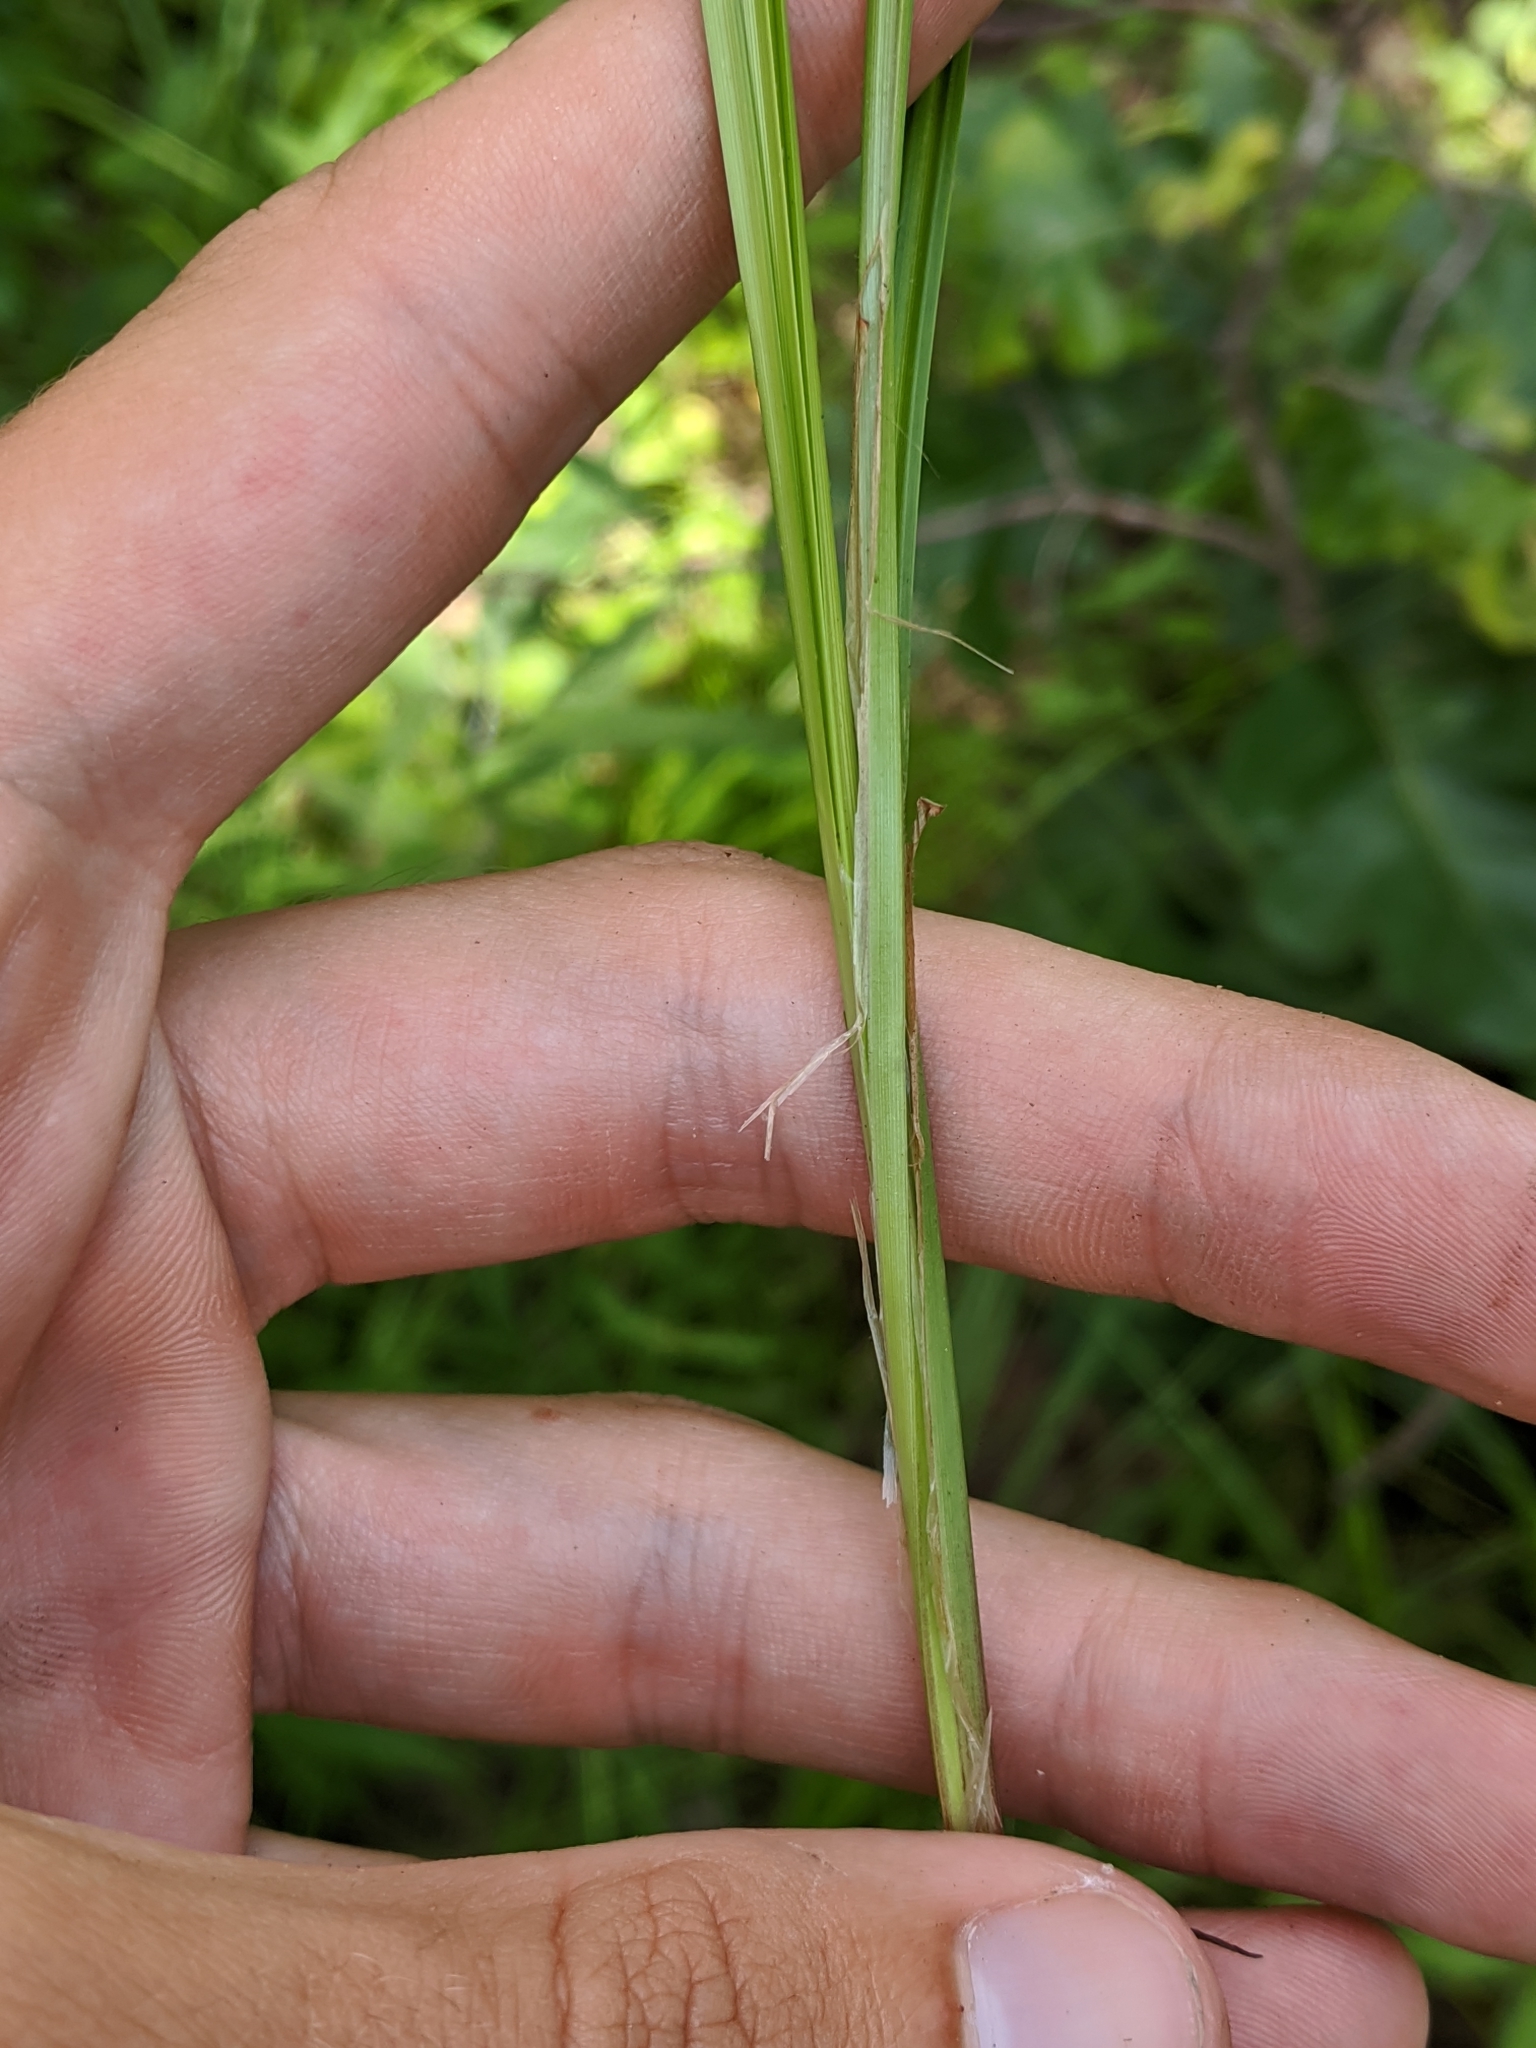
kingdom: Plantae
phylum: Tracheophyta
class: Liliopsida
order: Poales
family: Cyperaceae
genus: Carex
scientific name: Carex caroliniana
